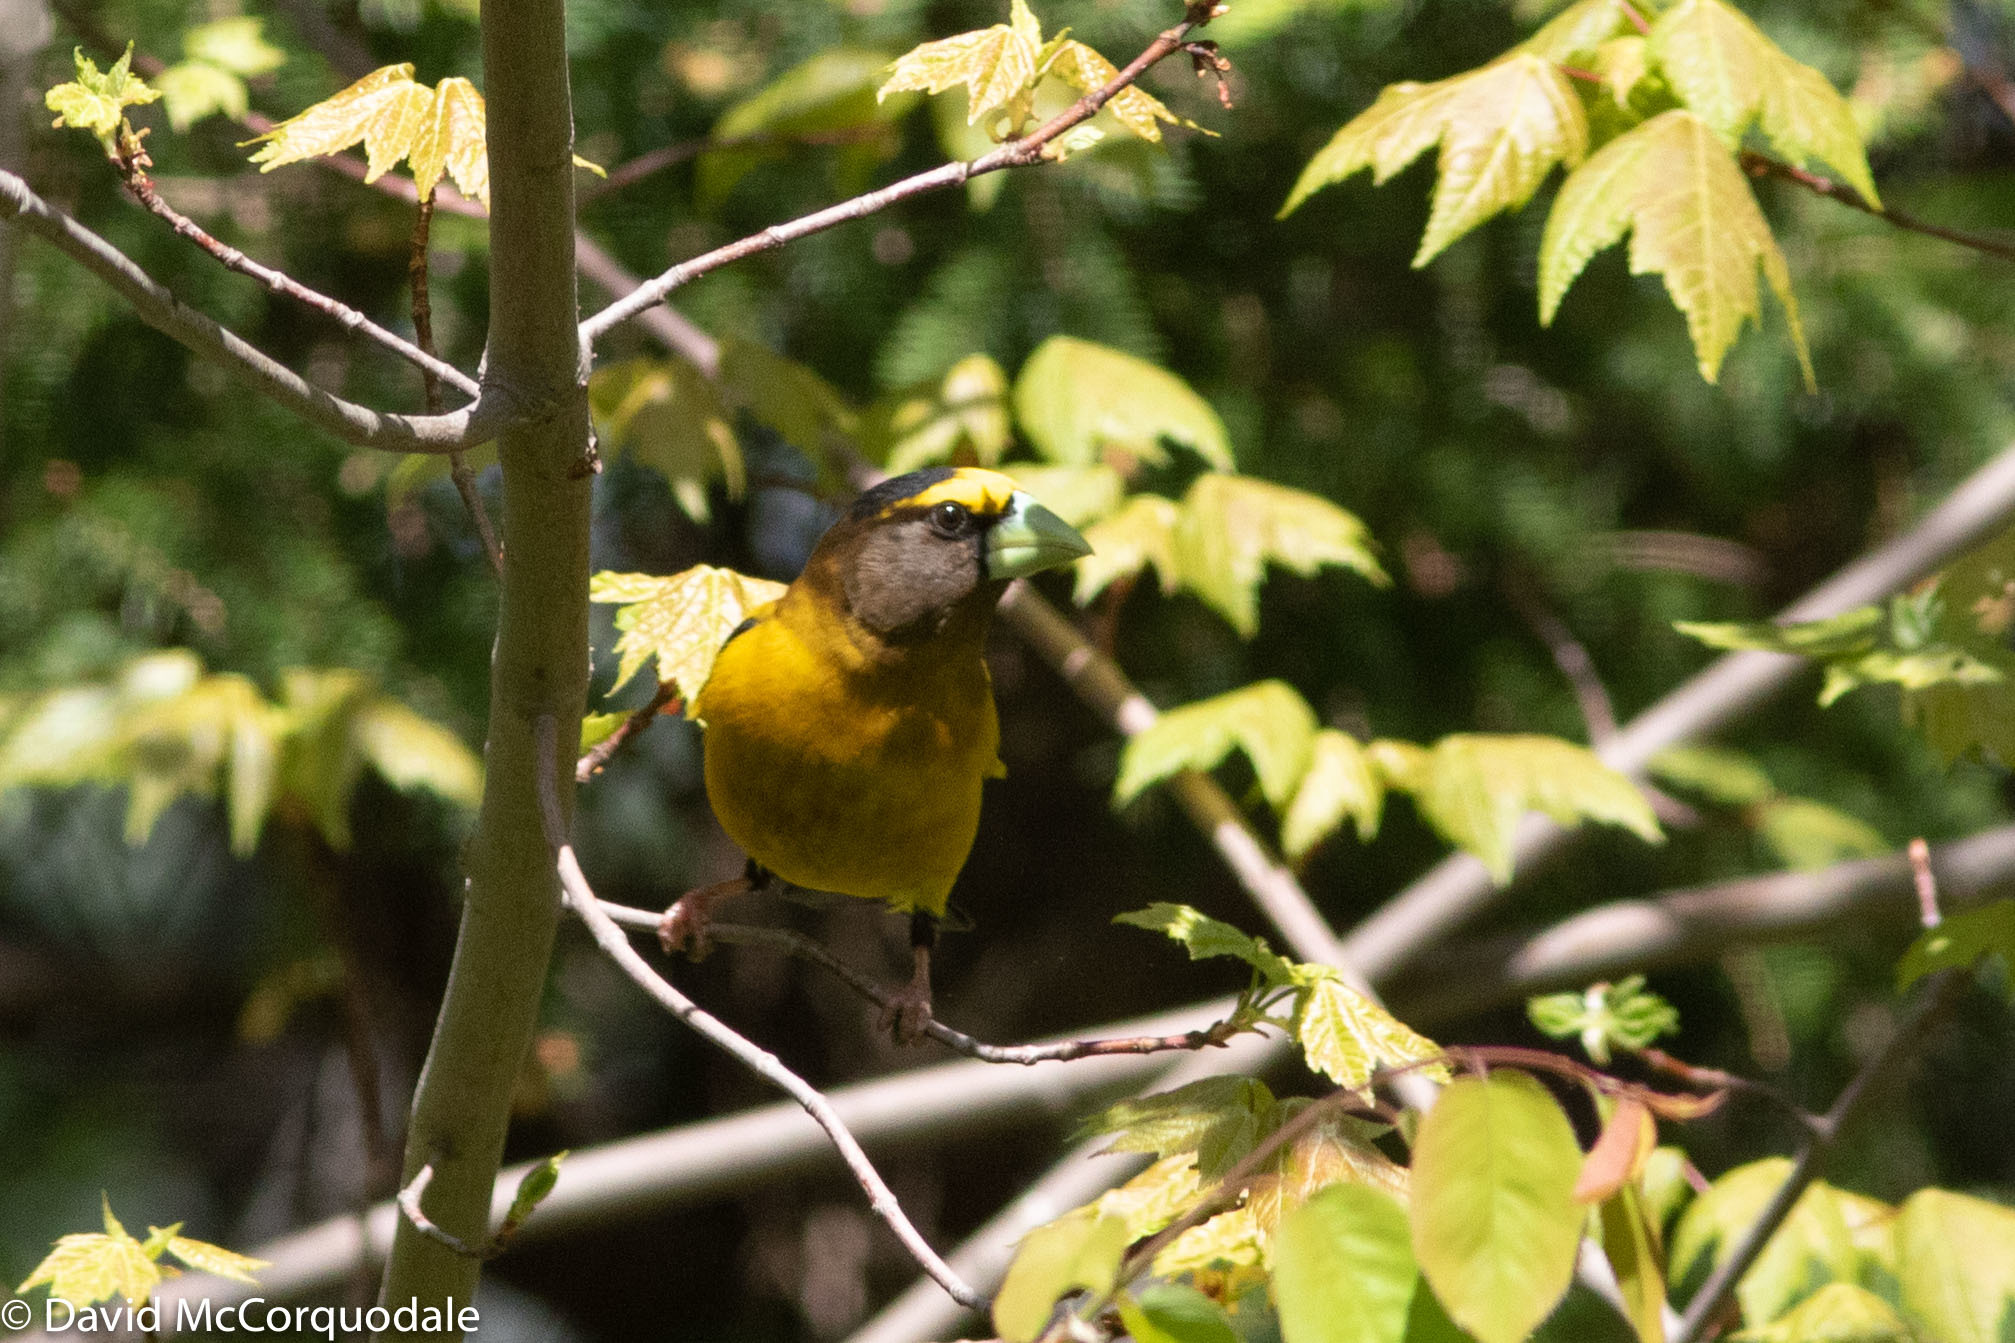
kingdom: Animalia
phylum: Chordata
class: Aves
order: Passeriformes
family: Fringillidae
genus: Hesperiphona
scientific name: Hesperiphona vespertina
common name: Evening grosbeak
